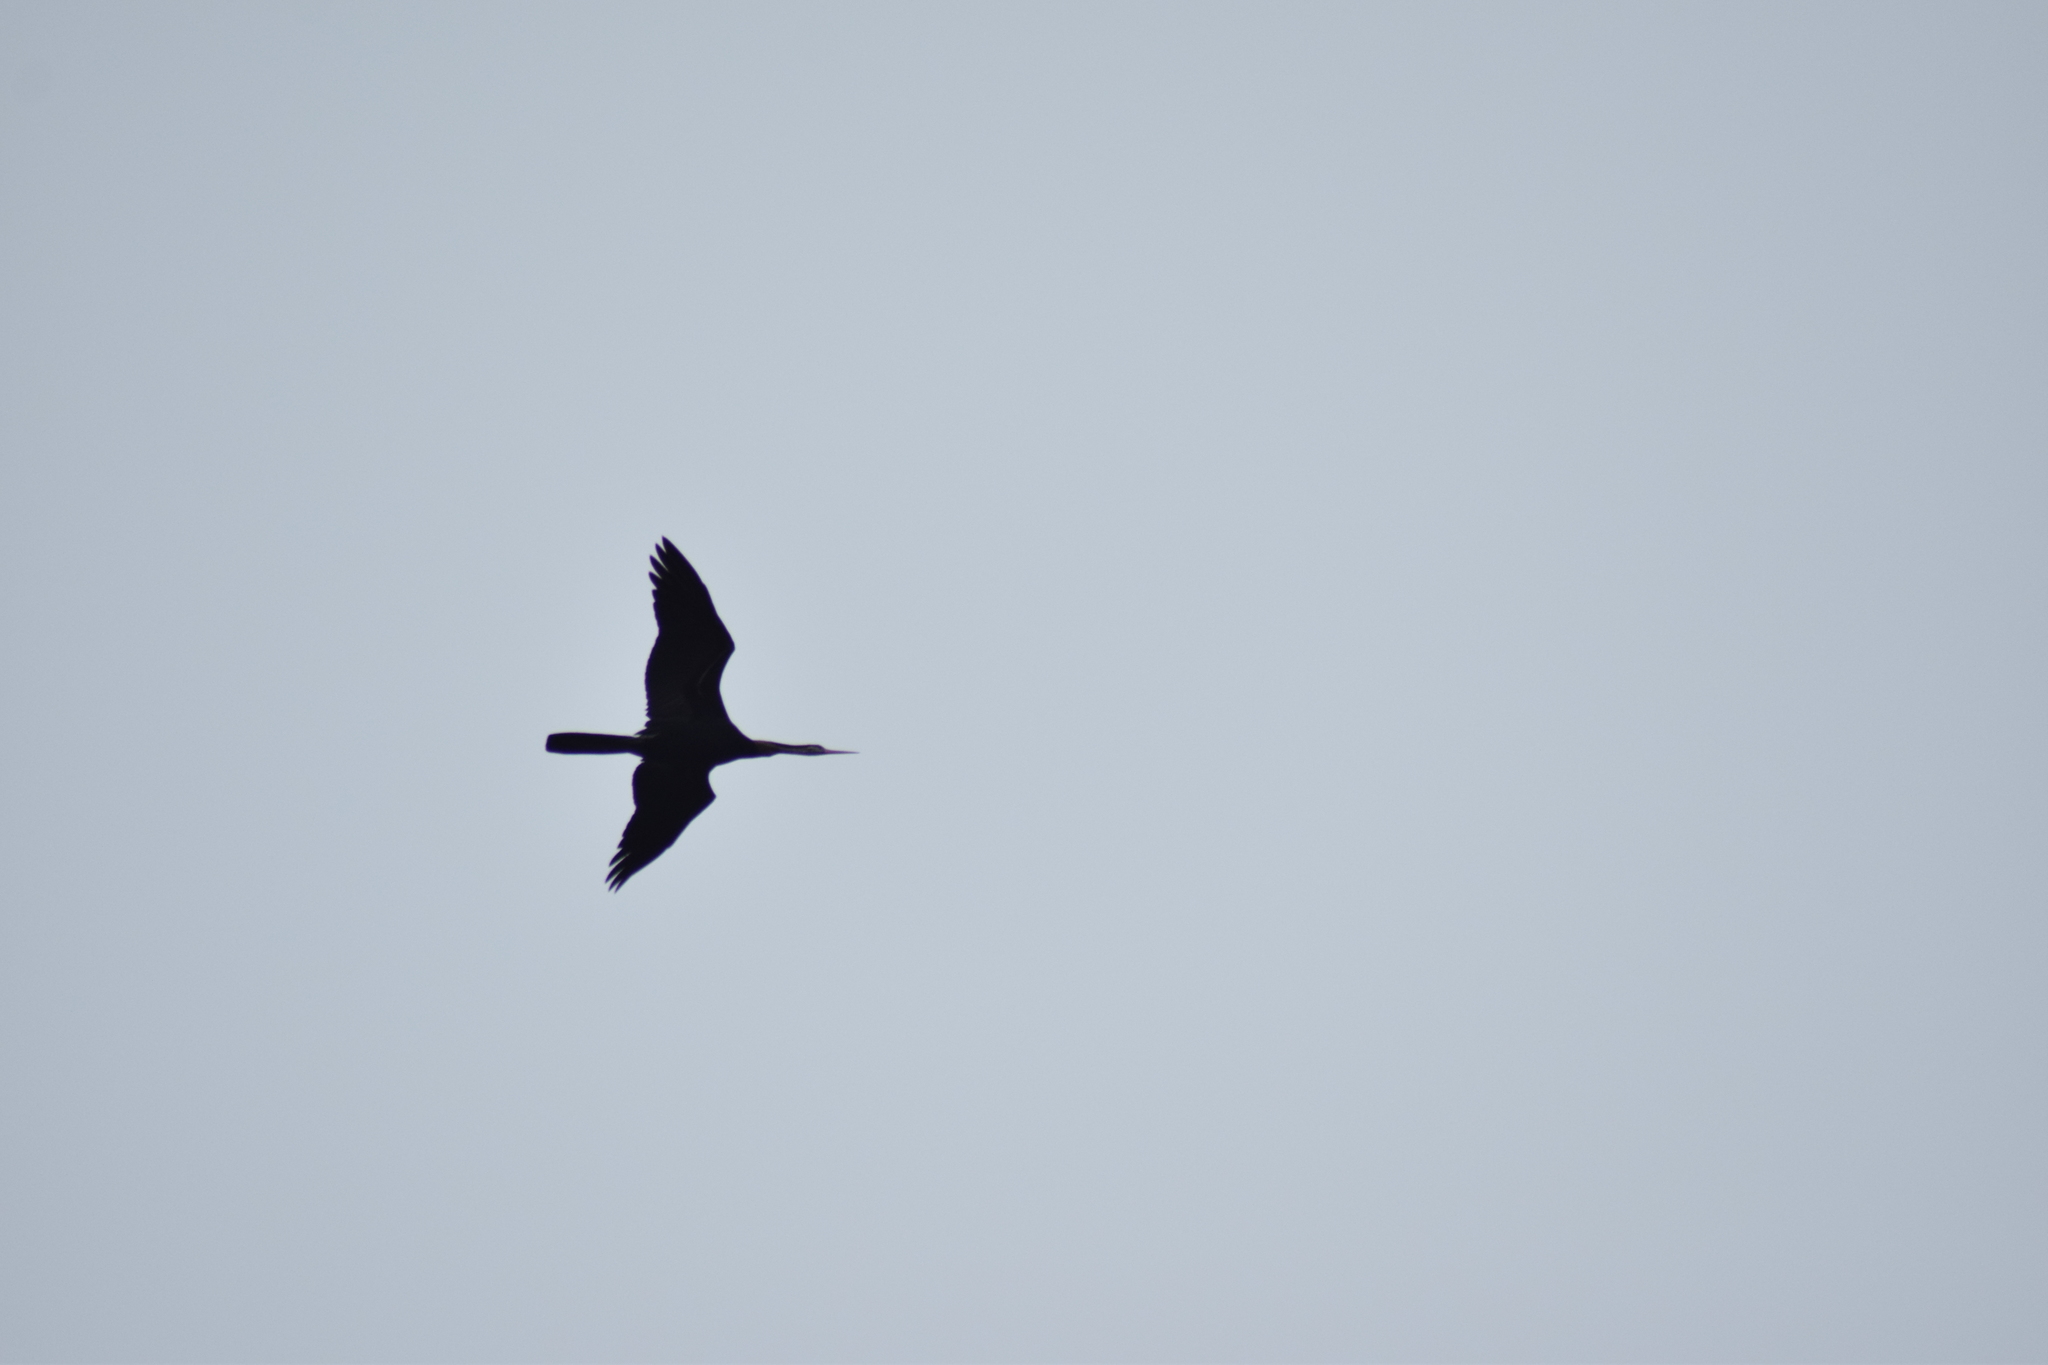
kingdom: Animalia
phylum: Chordata
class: Aves
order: Suliformes
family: Anhingidae
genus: Anhinga
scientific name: Anhinga melanogaster
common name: Oriental darter
